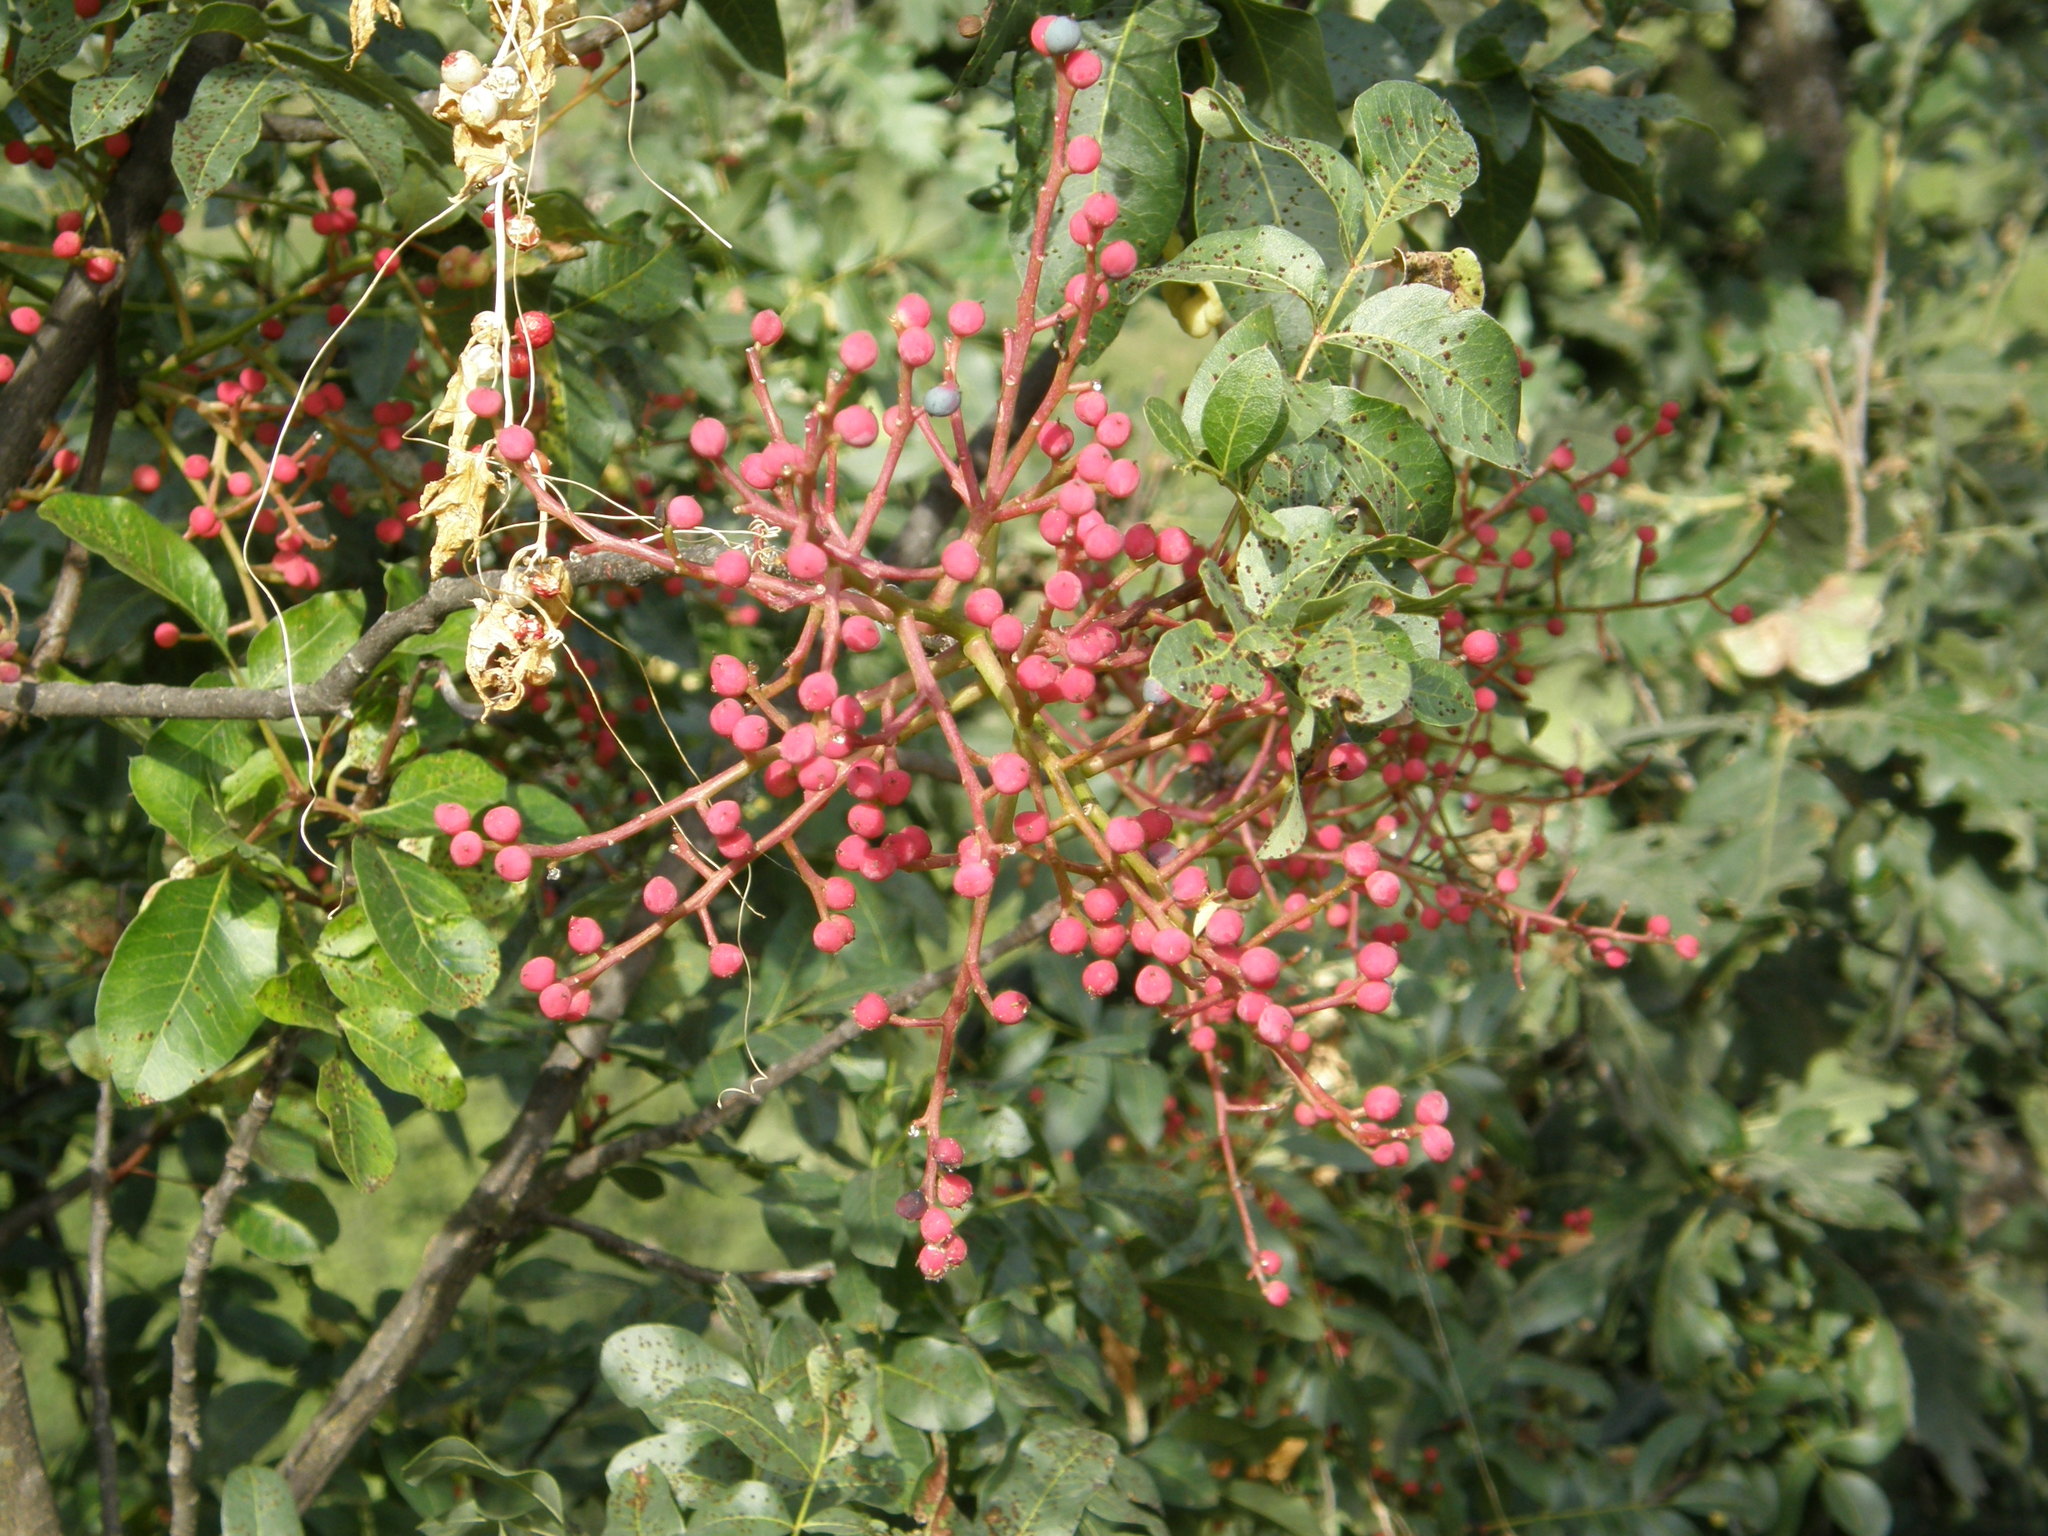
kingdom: Plantae
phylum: Tracheophyta
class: Magnoliopsida
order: Sapindales
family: Anacardiaceae
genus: Pistacia
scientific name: Pistacia terebinthus
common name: Terebinth
